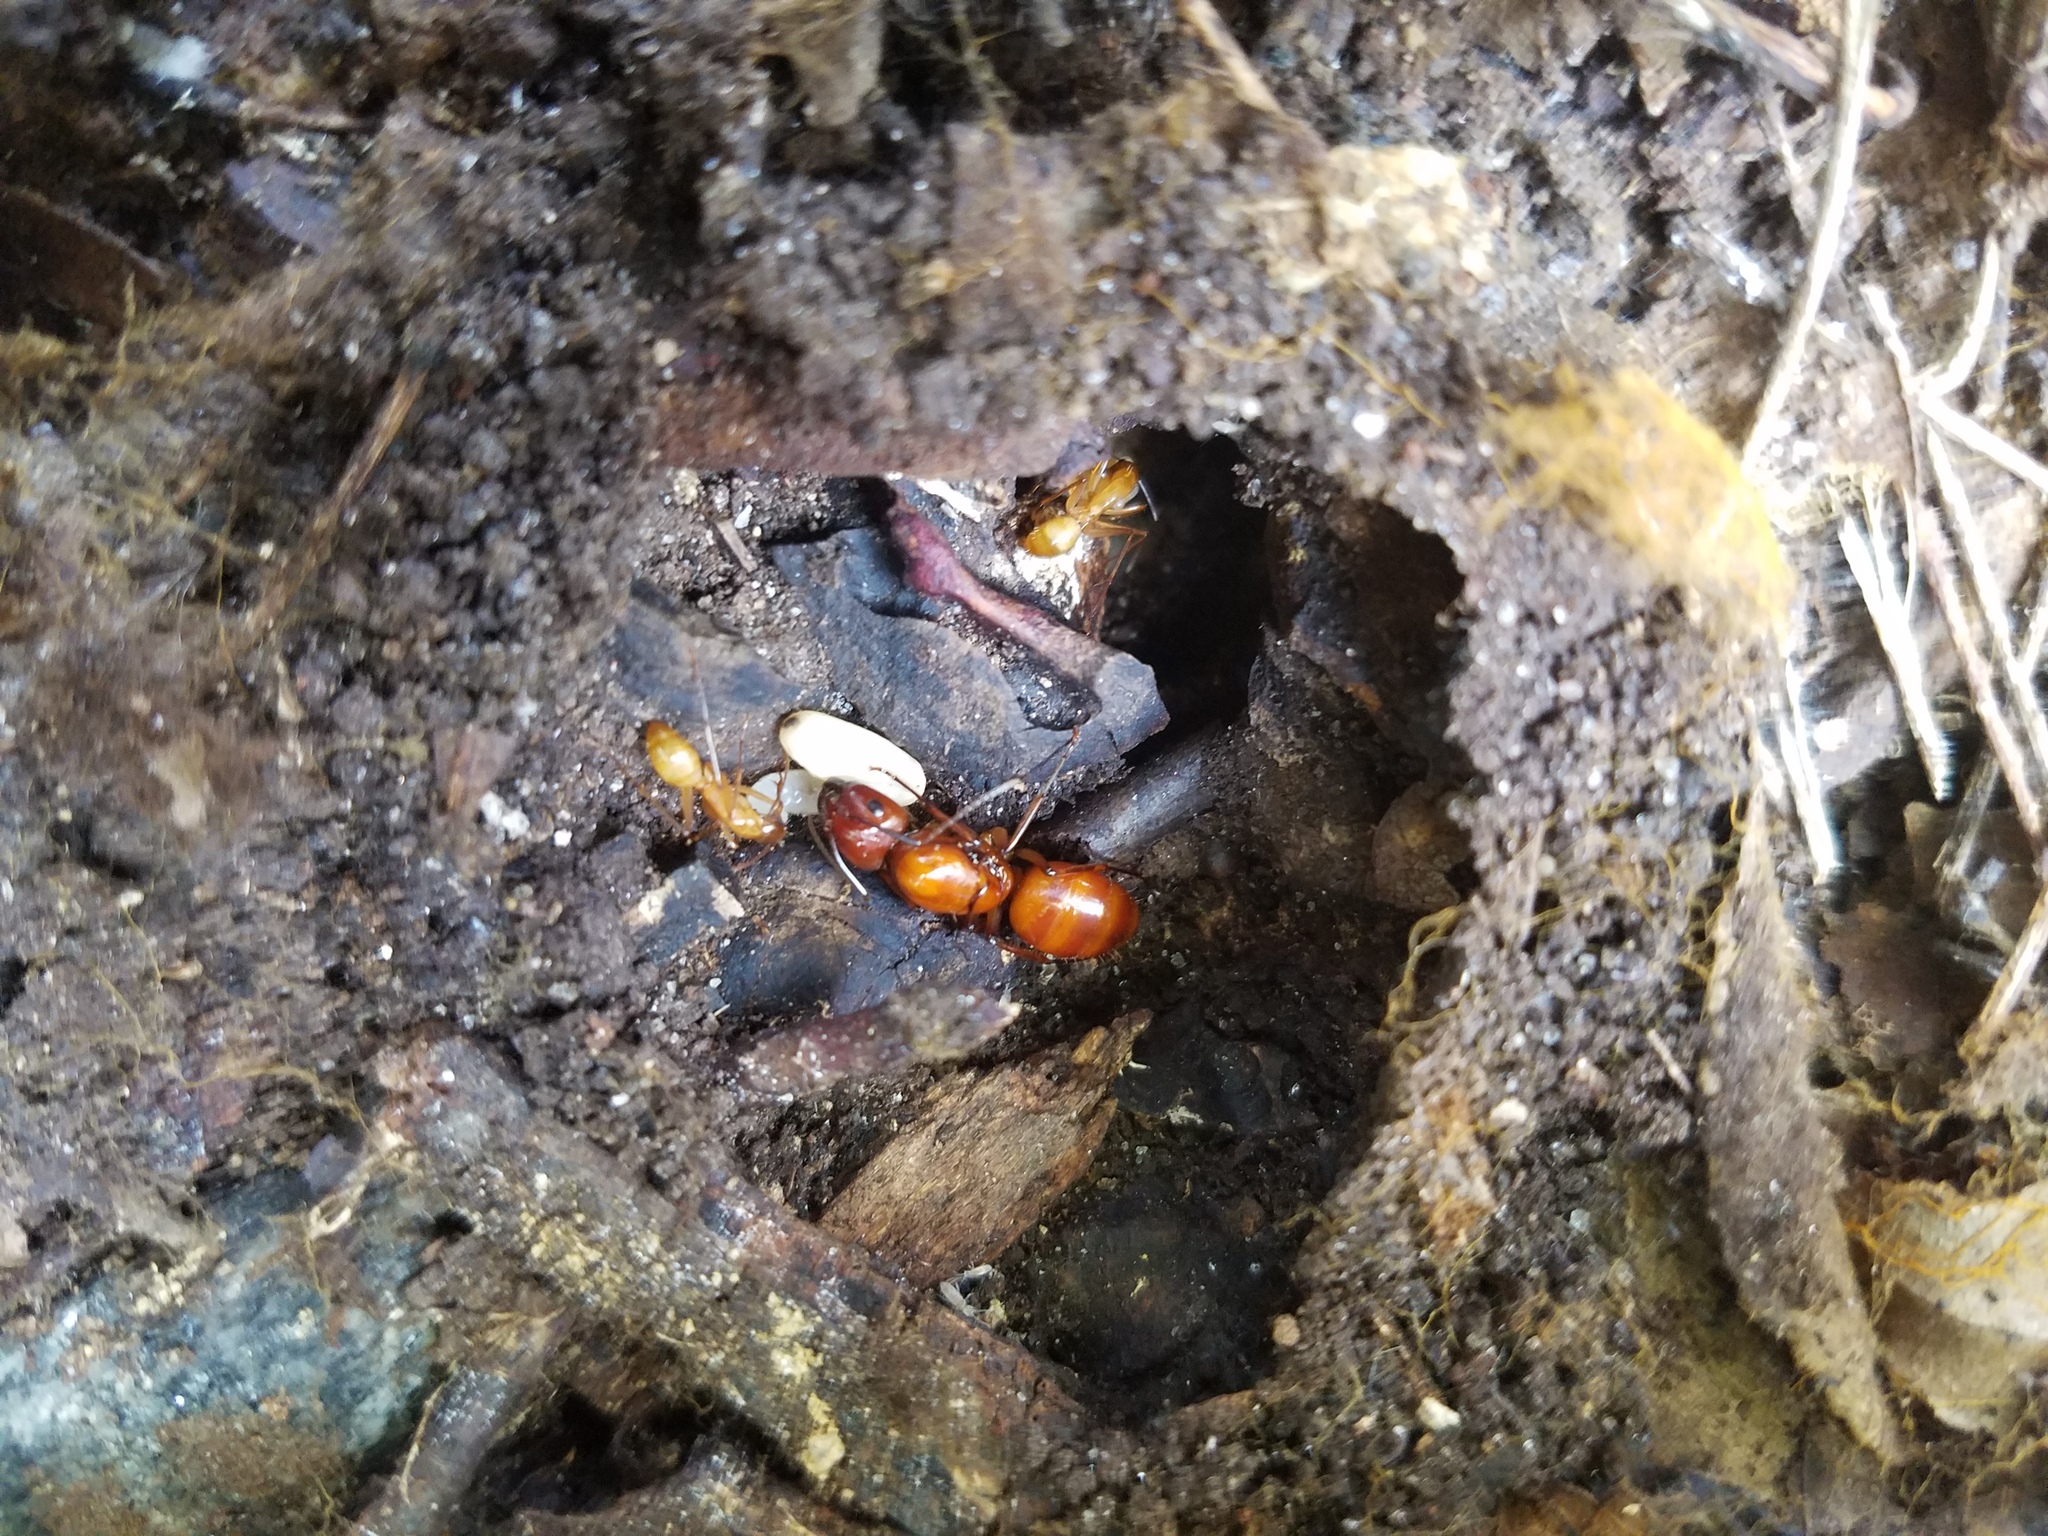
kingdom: Animalia
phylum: Arthropoda
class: Insecta
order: Hymenoptera
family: Formicidae
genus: Camponotus
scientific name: Camponotus castaneus
